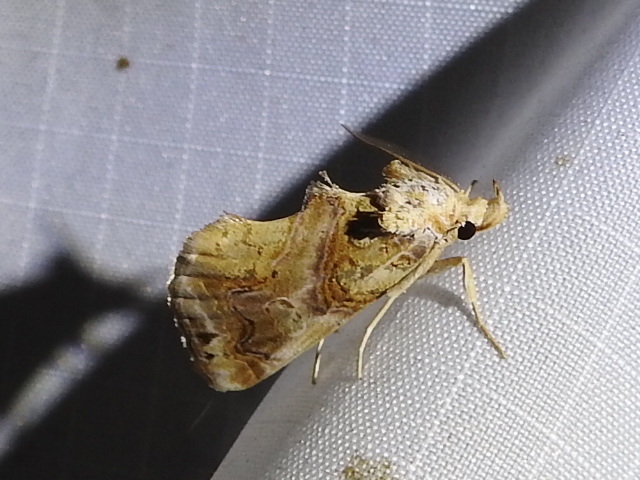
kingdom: Animalia
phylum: Arthropoda
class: Insecta
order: Lepidoptera
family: Erebidae
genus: Plusiodonta
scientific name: Plusiodonta compressipalpis
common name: Moonseed moth
